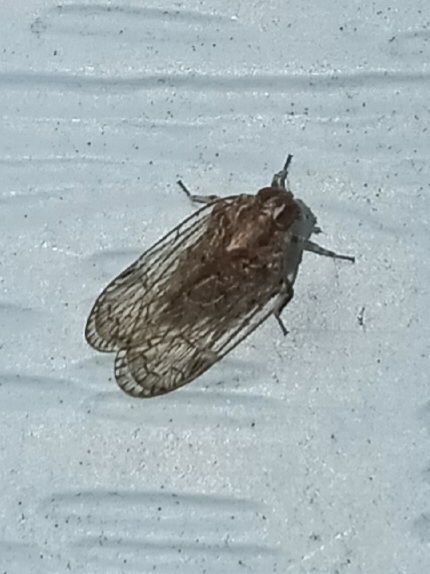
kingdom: Animalia
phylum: Arthropoda
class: Insecta
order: Hemiptera
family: Cixiidae
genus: Melanoliarus
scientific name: Melanoliarus placitus
